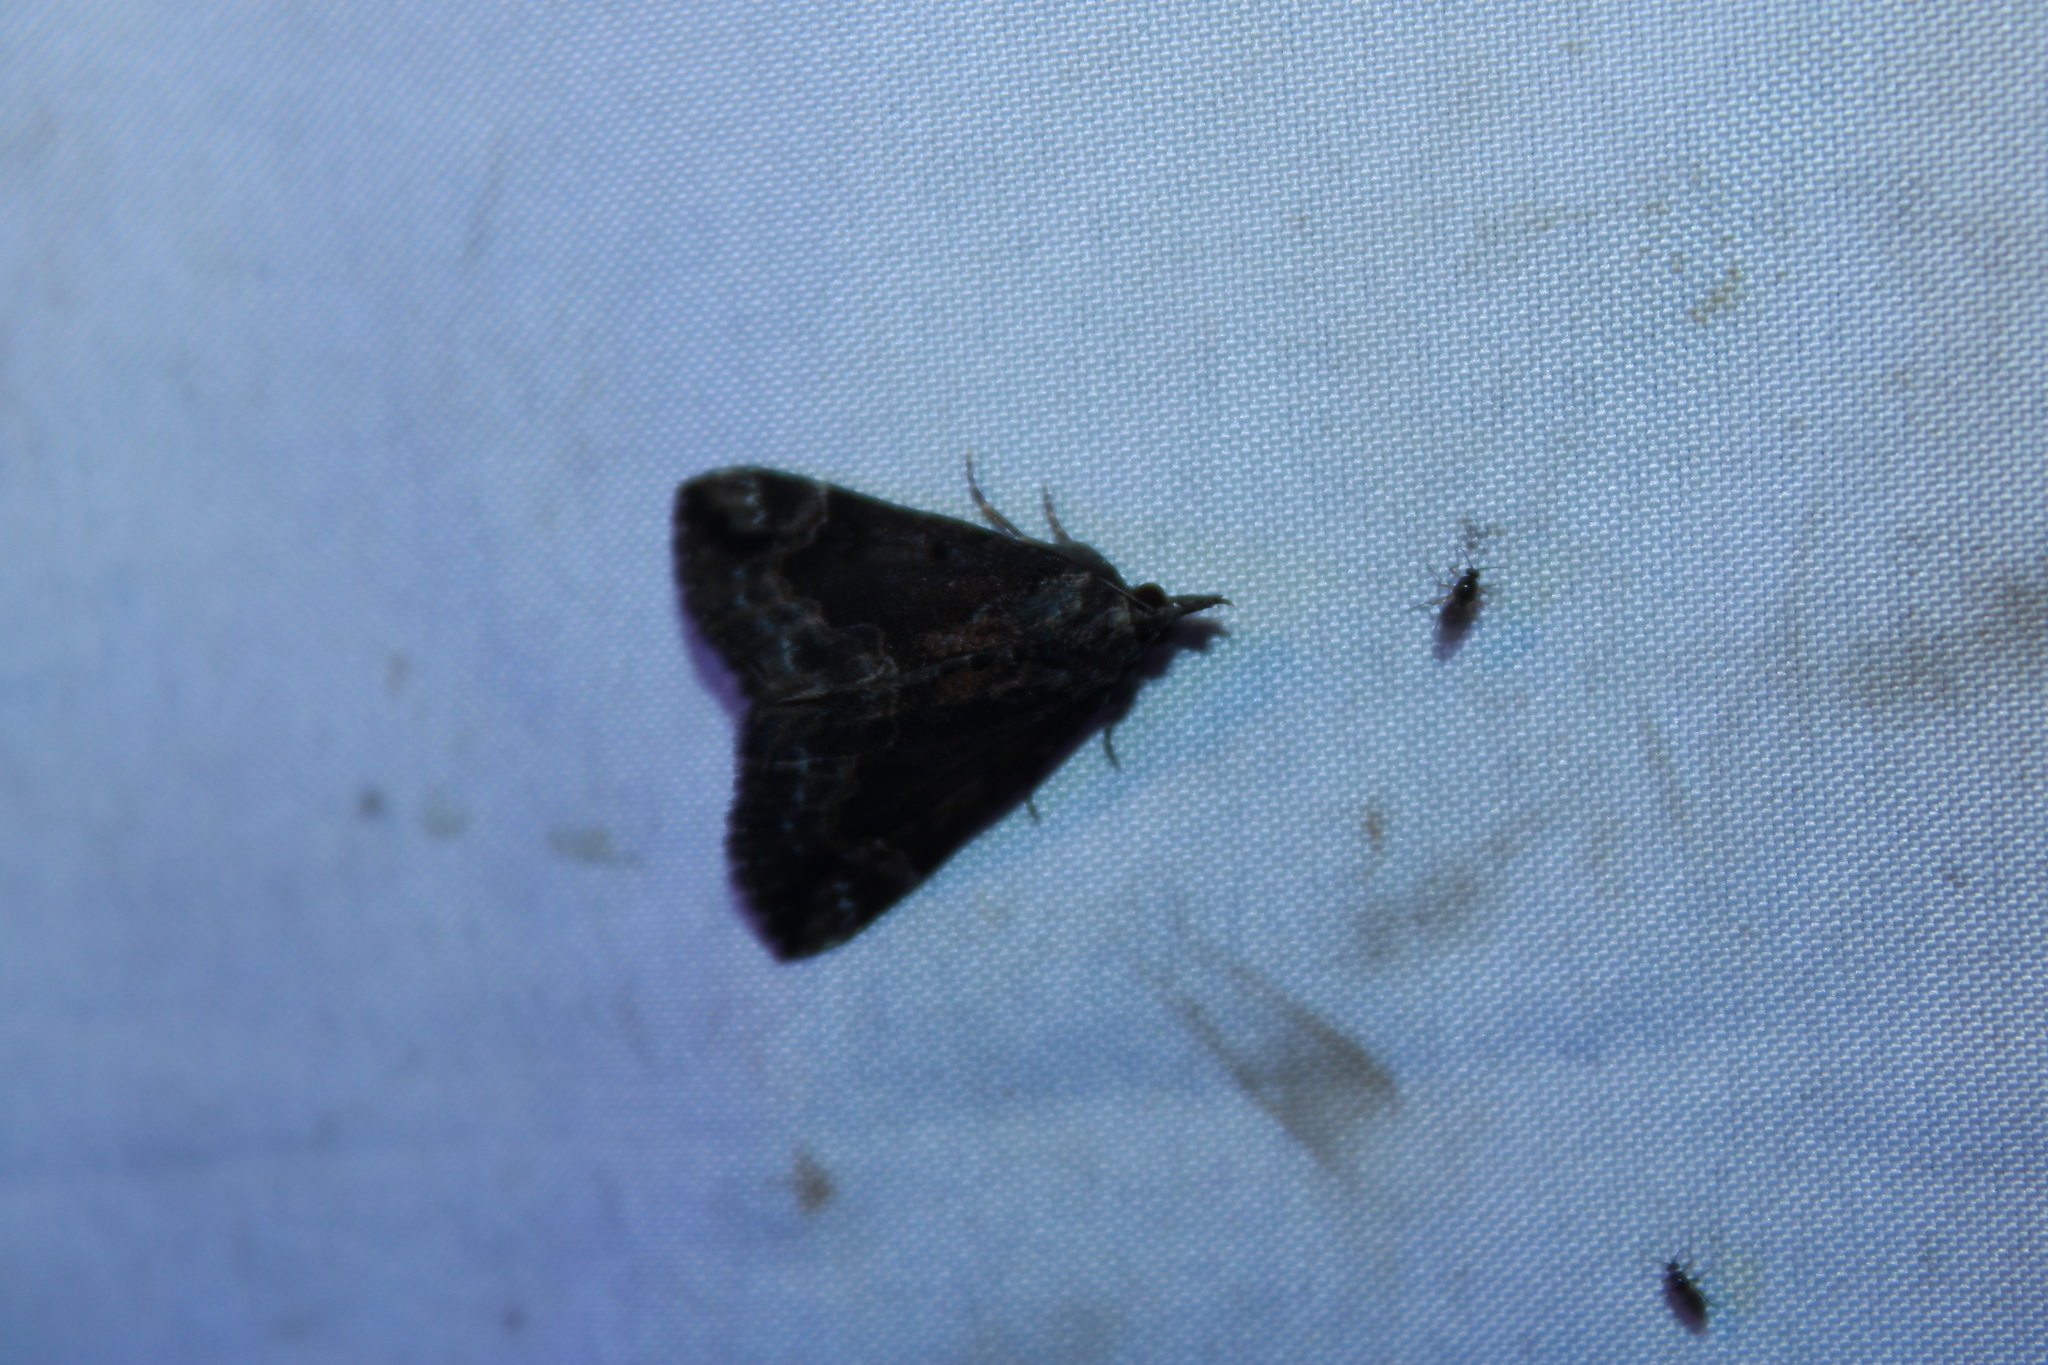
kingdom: Animalia
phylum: Arthropoda
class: Insecta
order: Lepidoptera
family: Erebidae
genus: Hypena
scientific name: Hypena baltimoralis
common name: Baltimore snout
